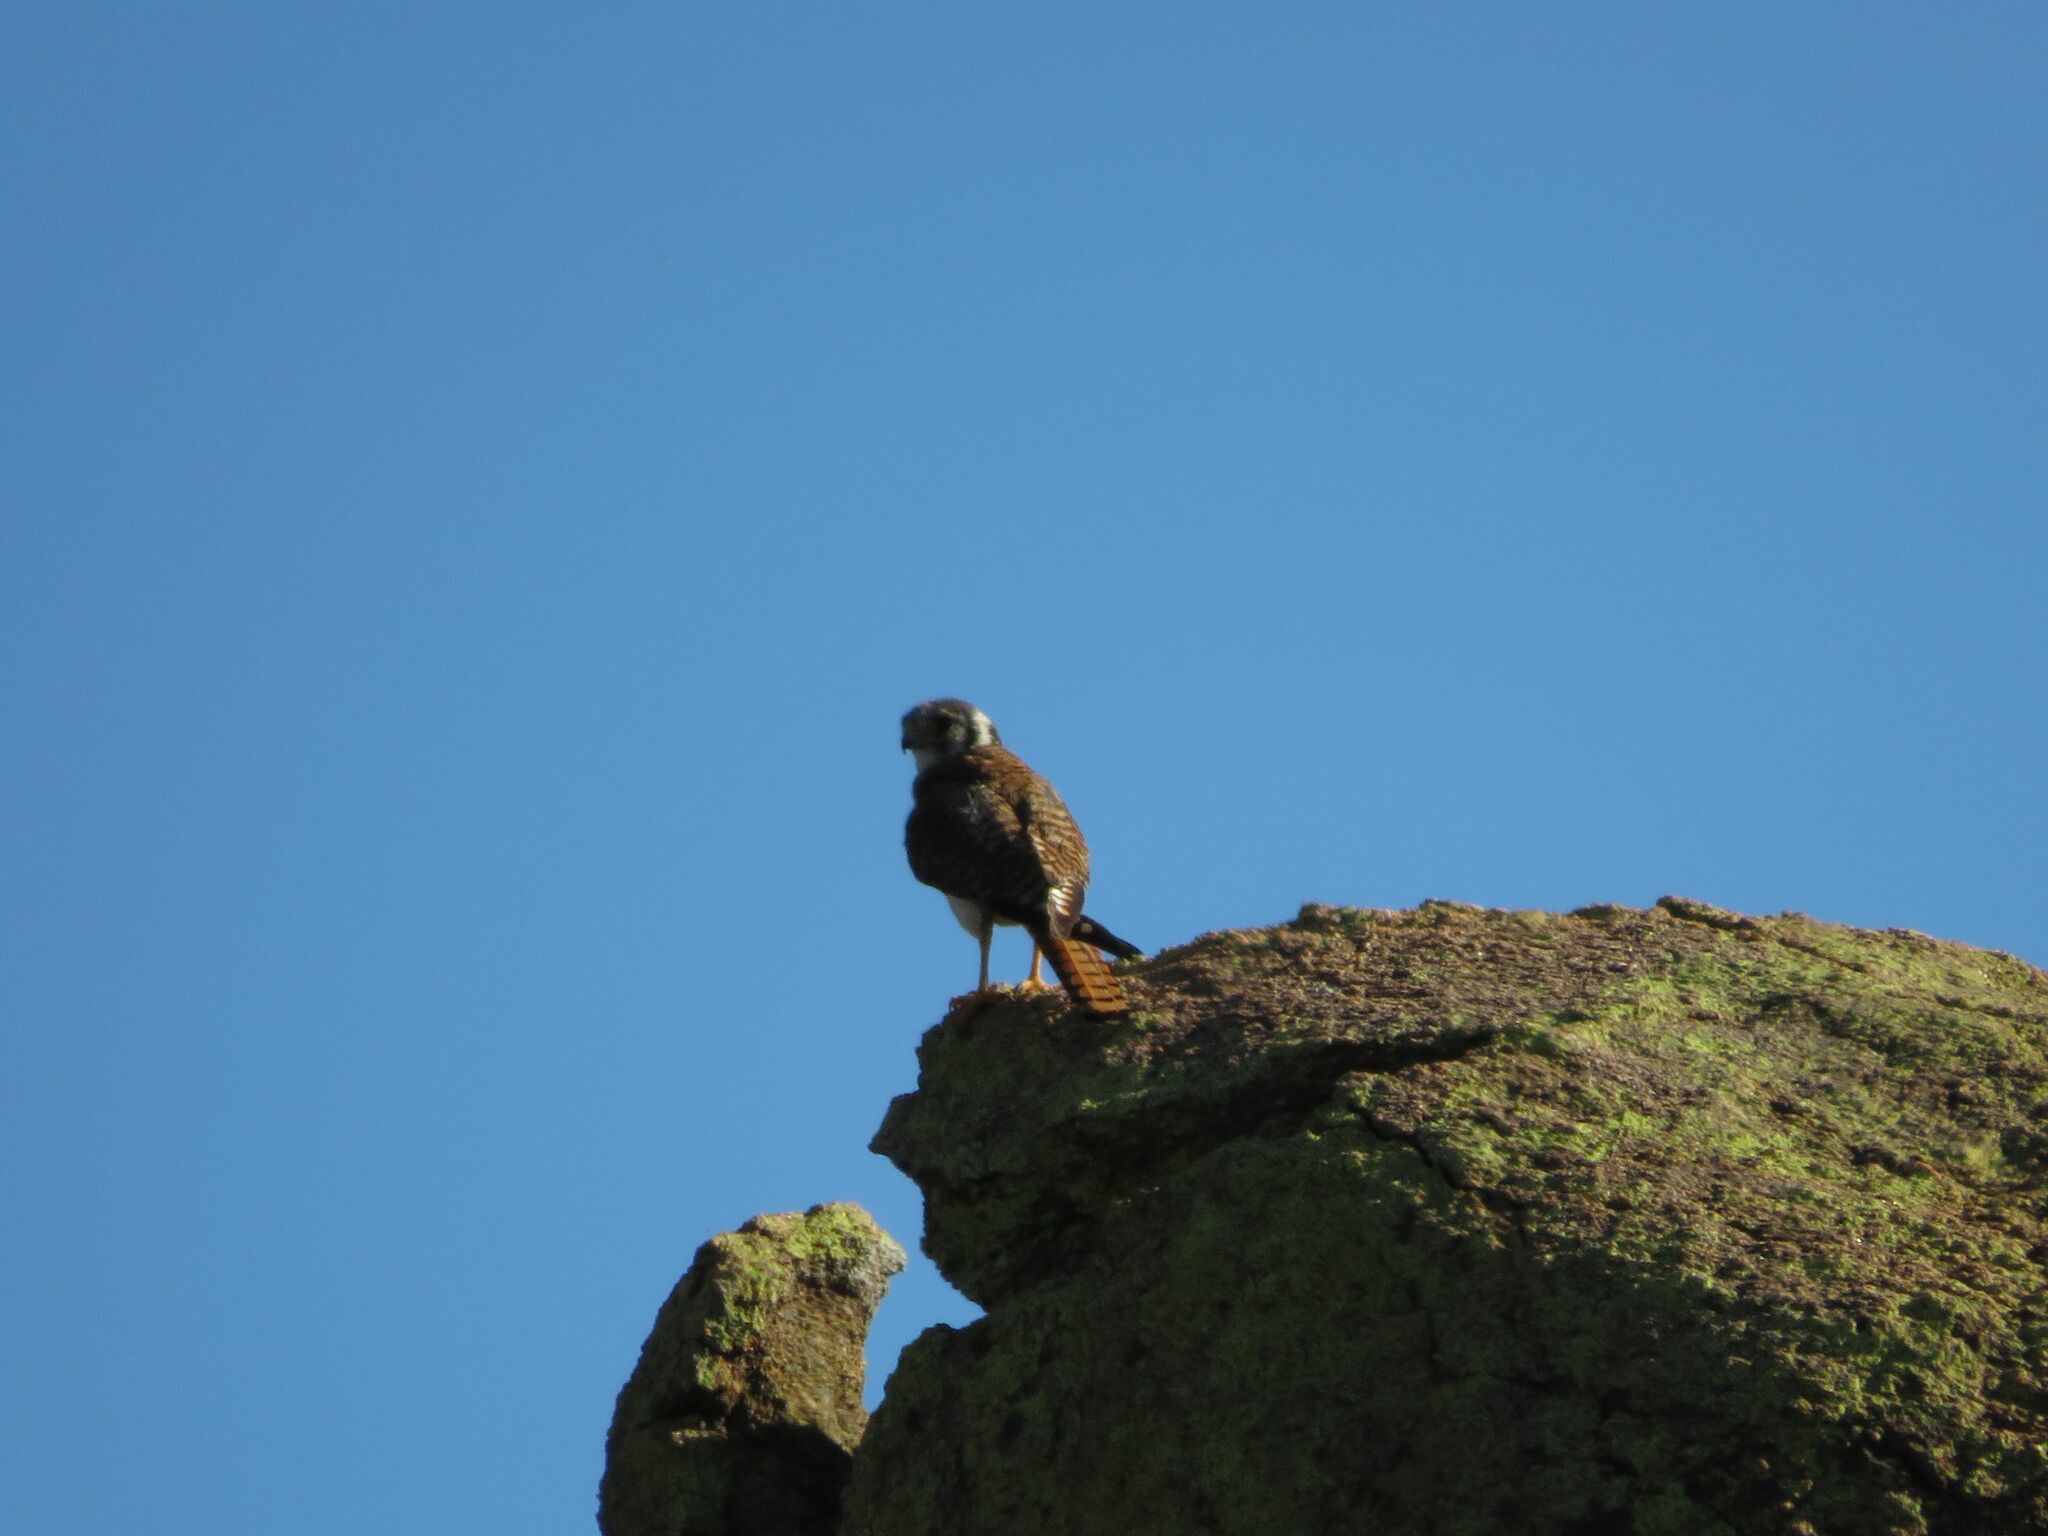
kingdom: Animalia
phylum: Chordata
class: Aves
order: Falconiformes
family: Falconidae
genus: Falco
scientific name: Falco sparverius
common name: American kestrel
